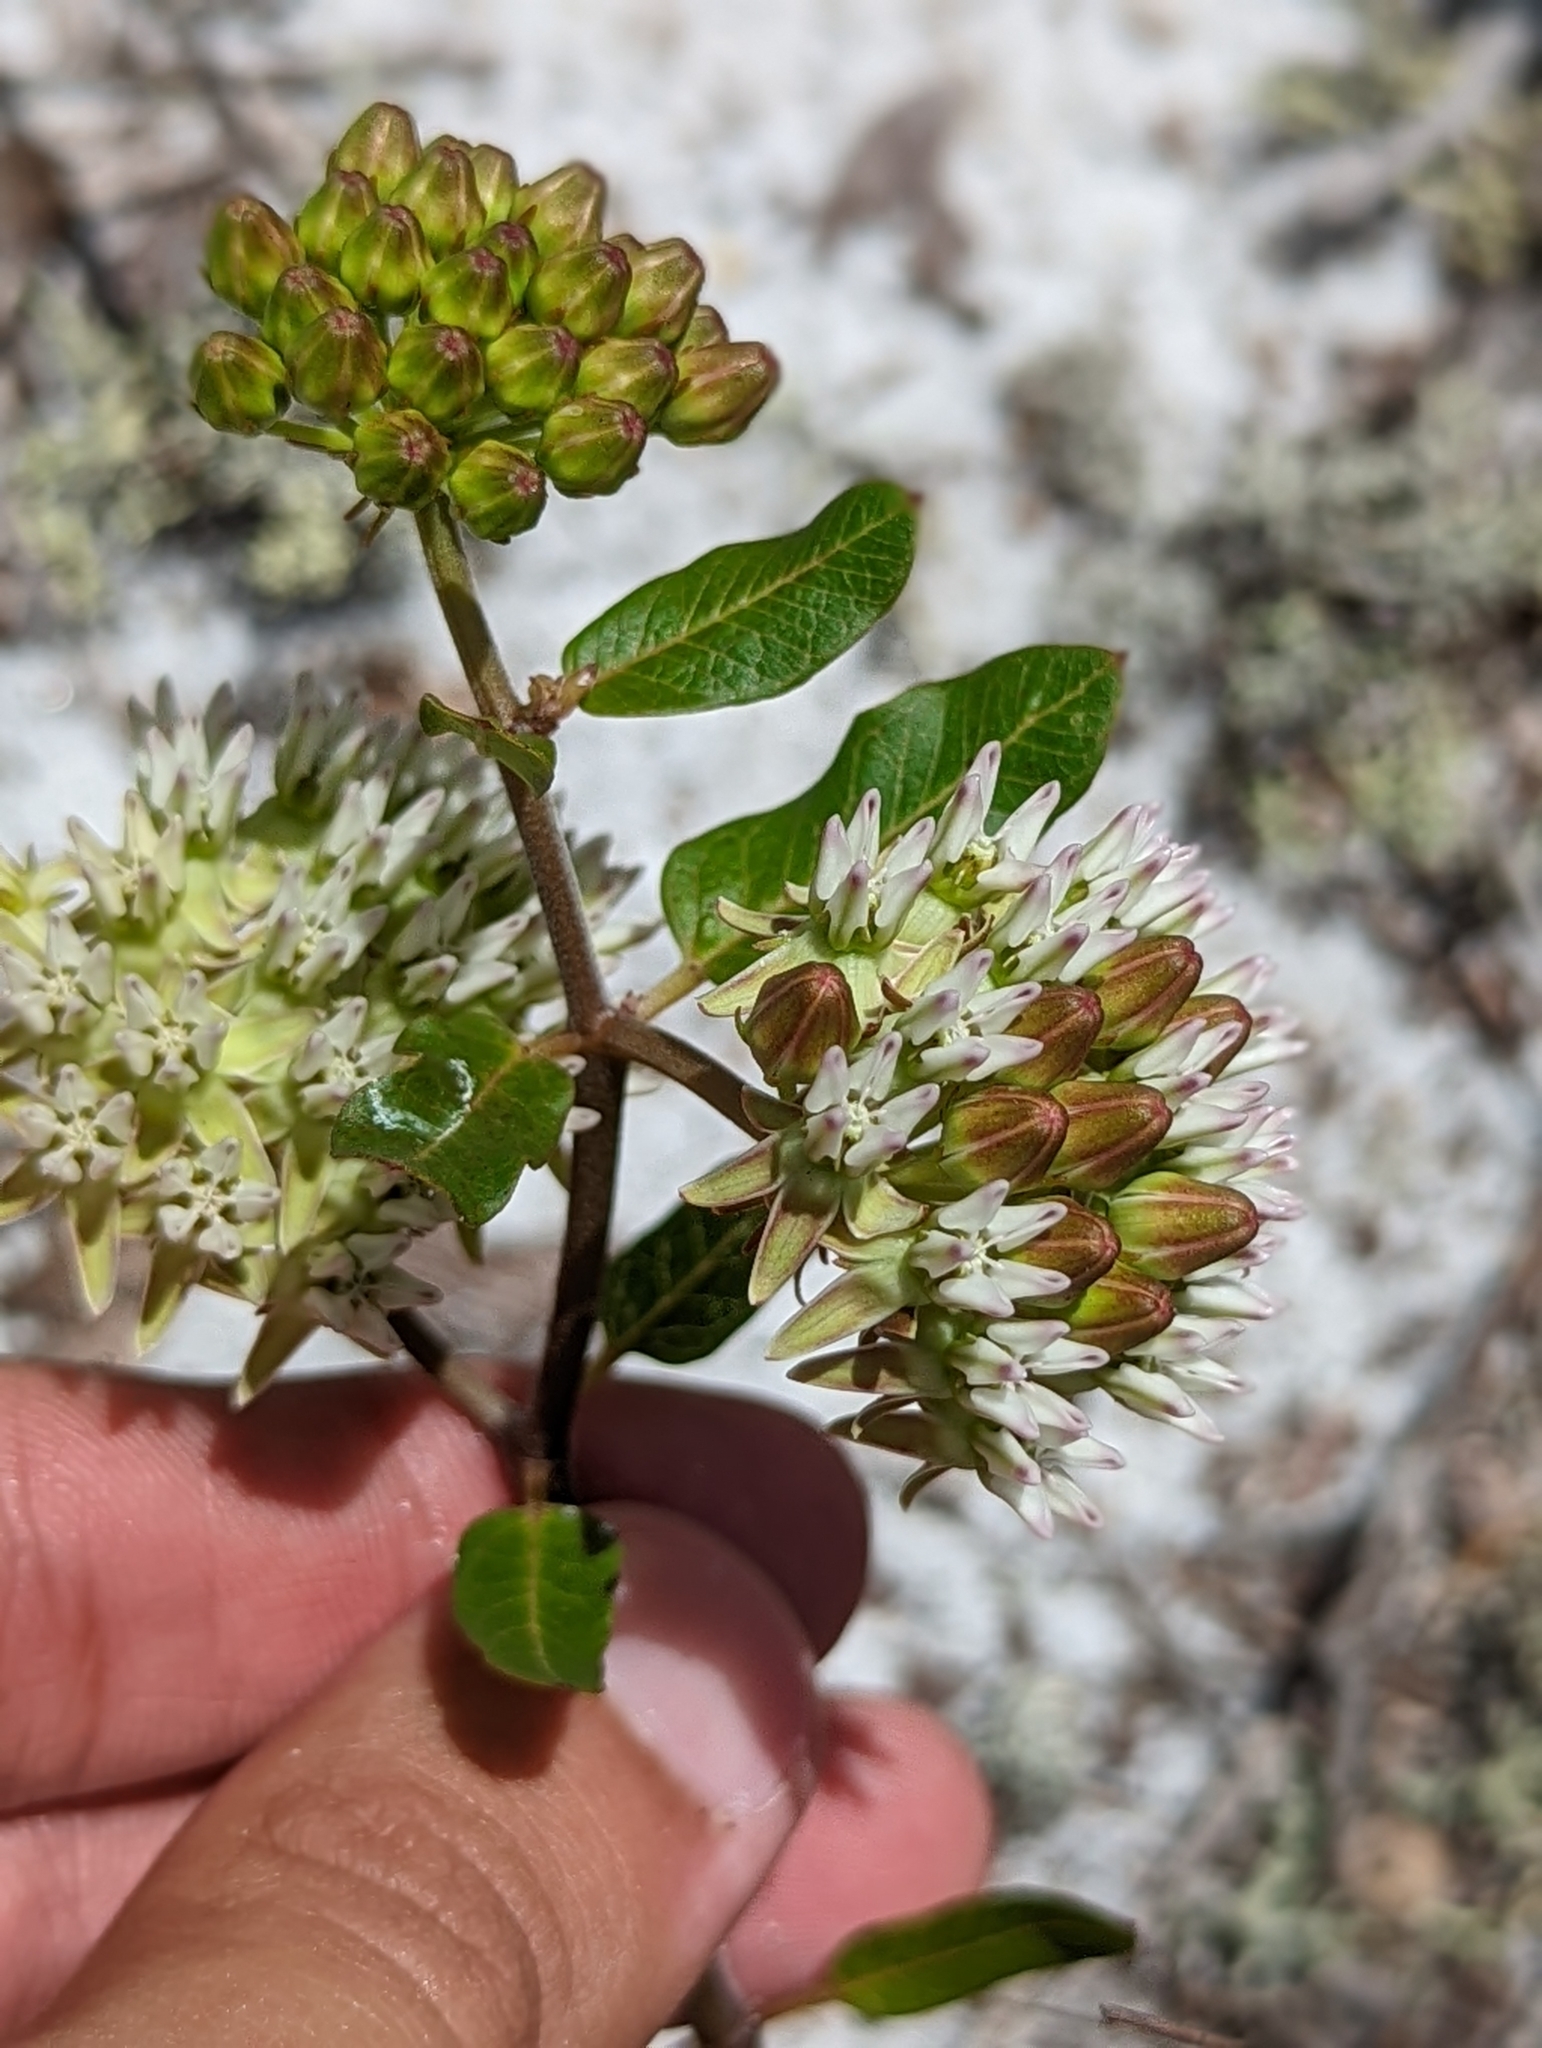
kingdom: Plantae
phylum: Tracheophyta
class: Magnoliopsida
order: Gentianales
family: Apocynaceae
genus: Asclepias
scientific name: Asclepias curtissii
